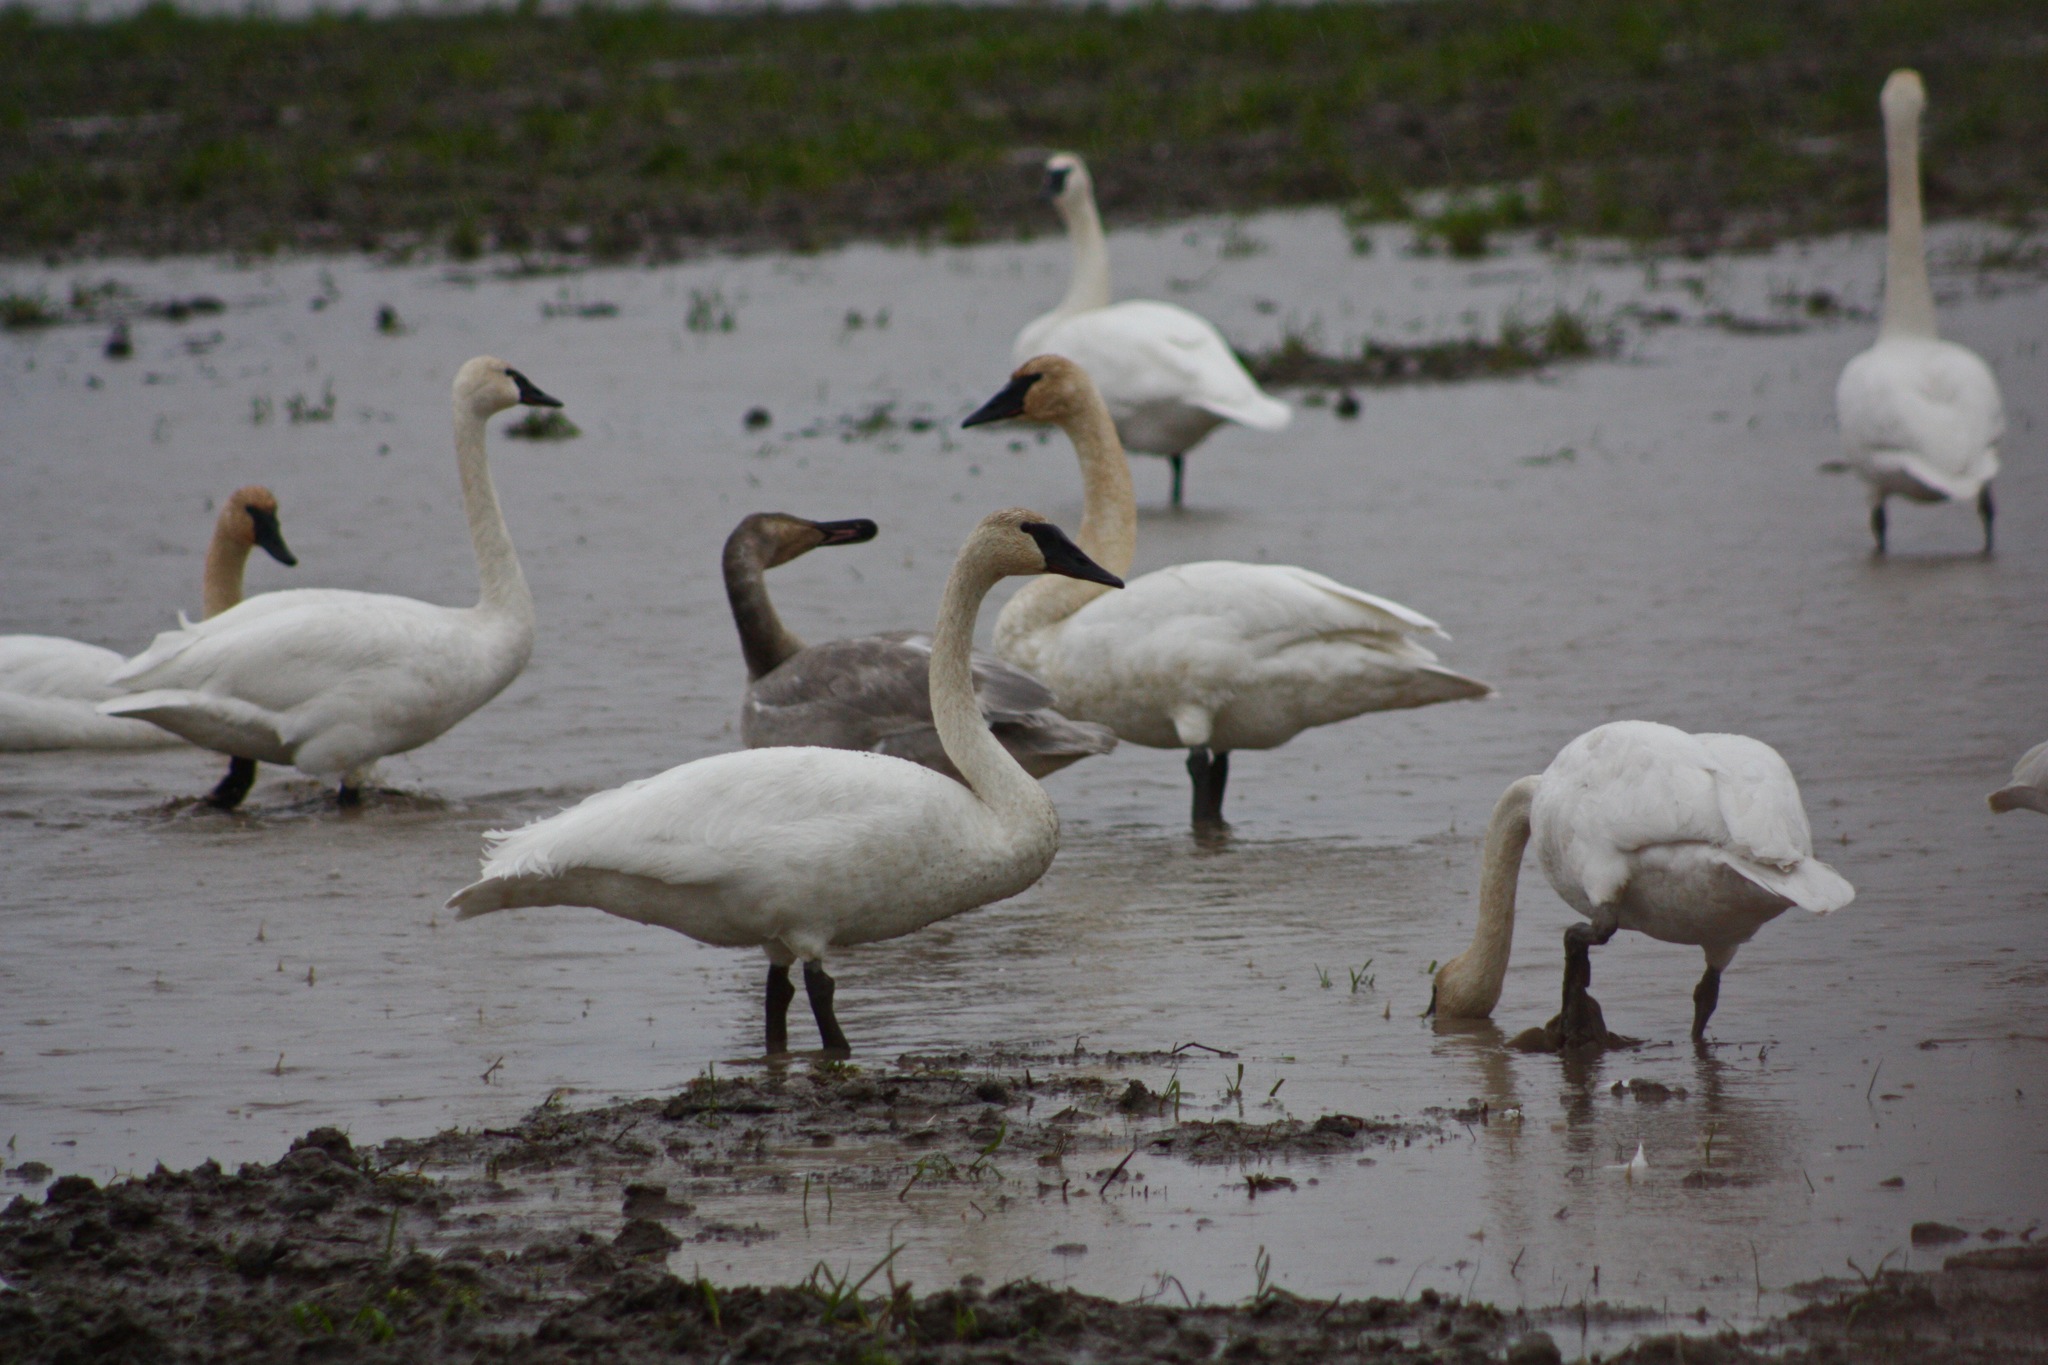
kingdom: Animalia
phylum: Chordata
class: Aves
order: Anseriformes
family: Anatidae
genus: Cygnus
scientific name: Cygnus buccinator
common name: Trumpeter swan
